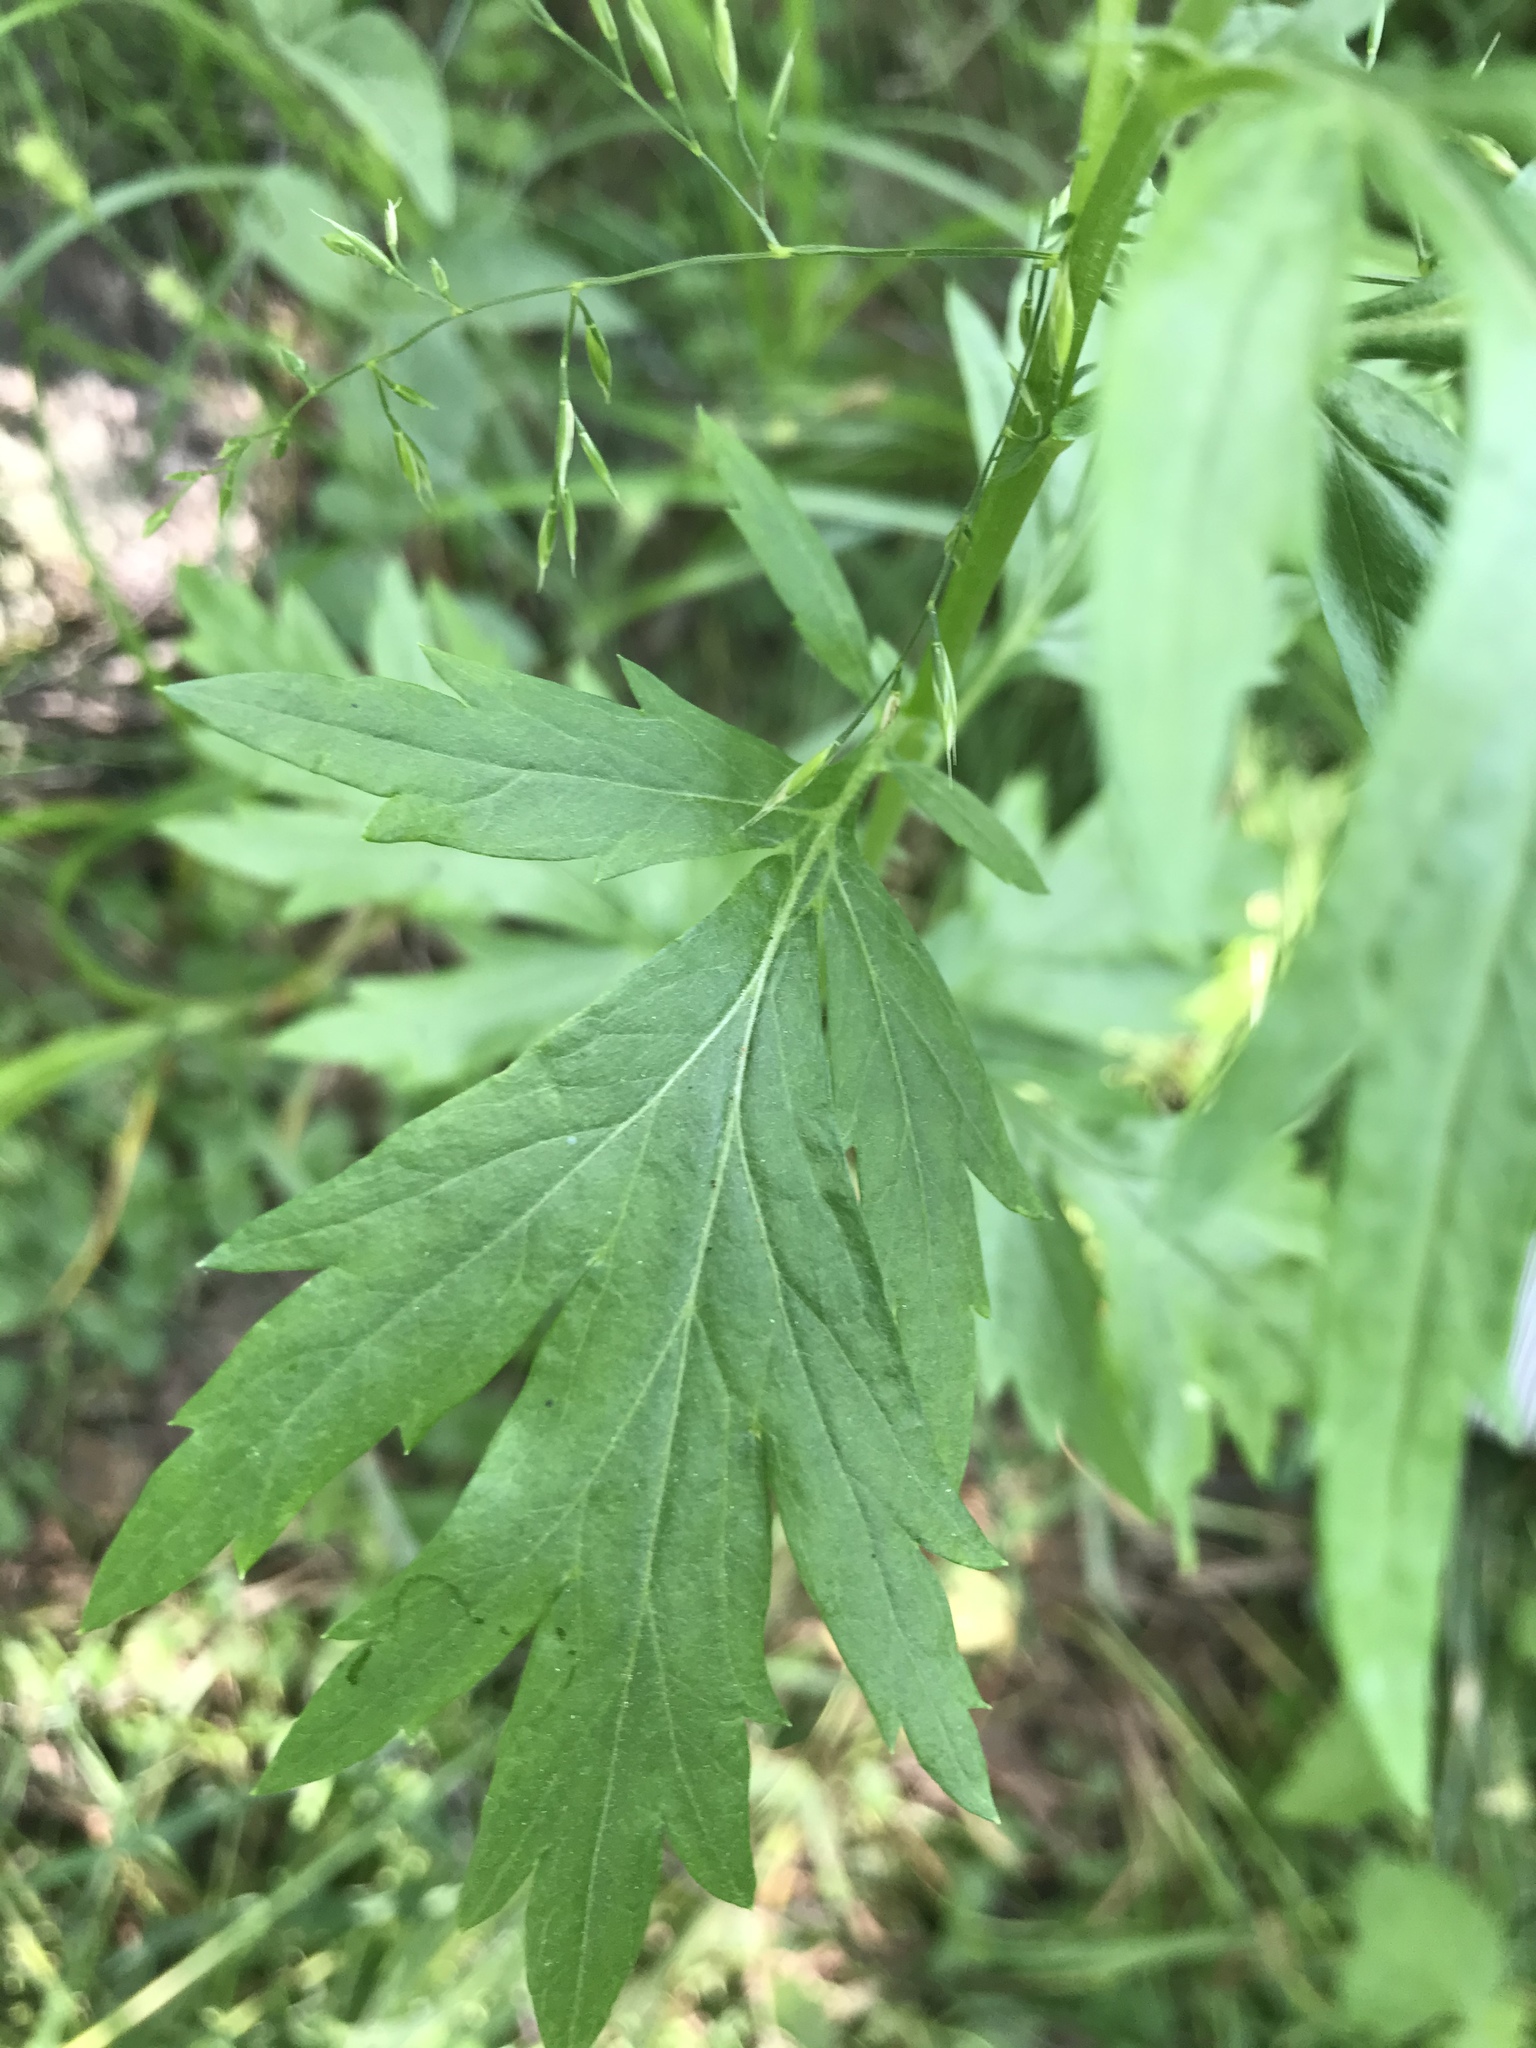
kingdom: Plantae
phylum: Tracheophyta
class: Magnoliopsida
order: Asterales
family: Asteraceae
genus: Artemisia
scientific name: Artemisia vulgaris
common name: Mugwort
